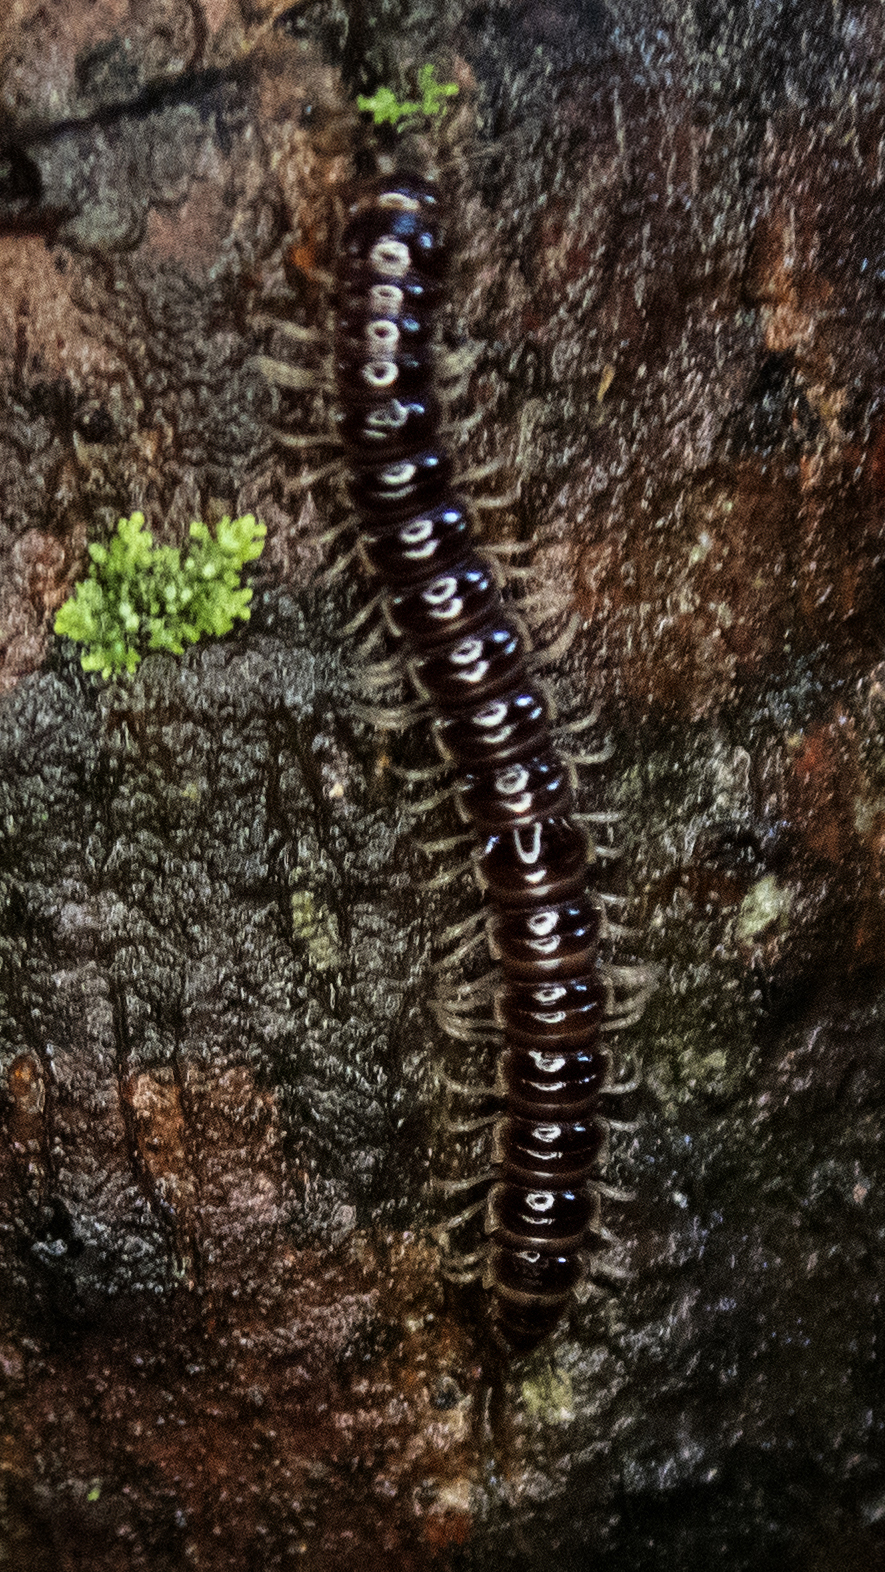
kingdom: Animalia
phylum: Arthropoda
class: Diplopoda
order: Polydesmida
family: Paradoxosomatidae
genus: Oxidus
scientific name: Oxidus gracilis
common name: Greenhouse millipede
